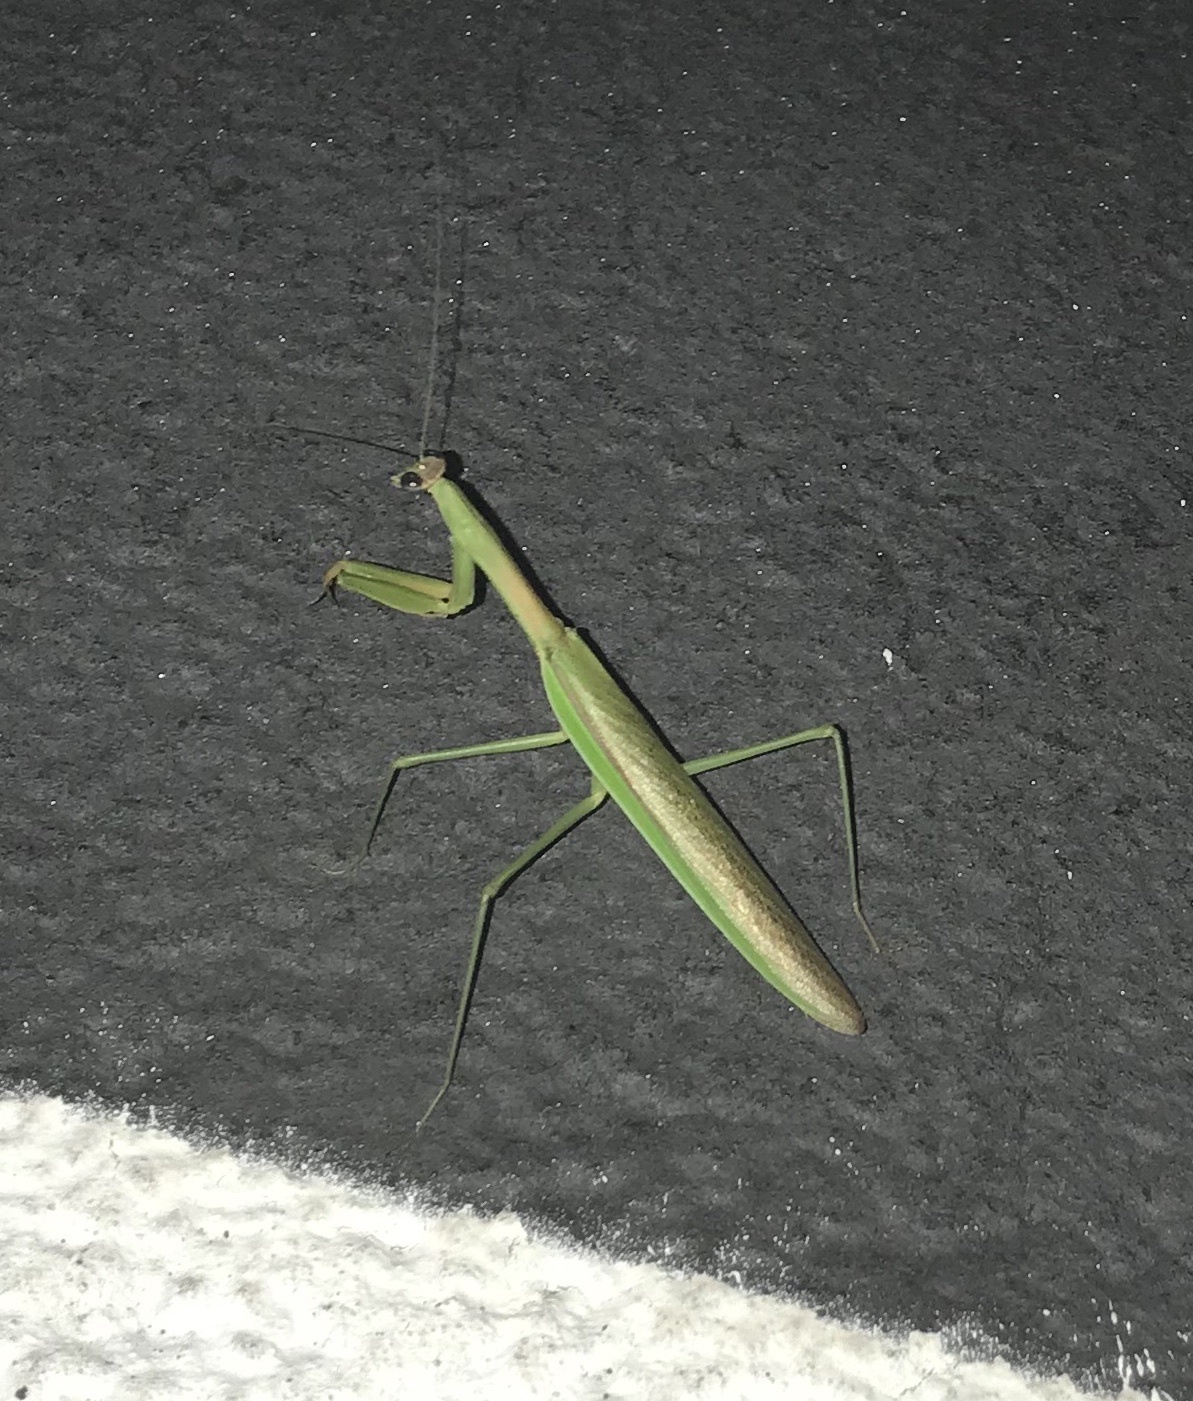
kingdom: Animalia
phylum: Arthropoda
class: Insecta
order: Mantodea
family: Mantidae
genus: Tenodera
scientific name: Tenodera sinensis
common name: Chinese mantis
